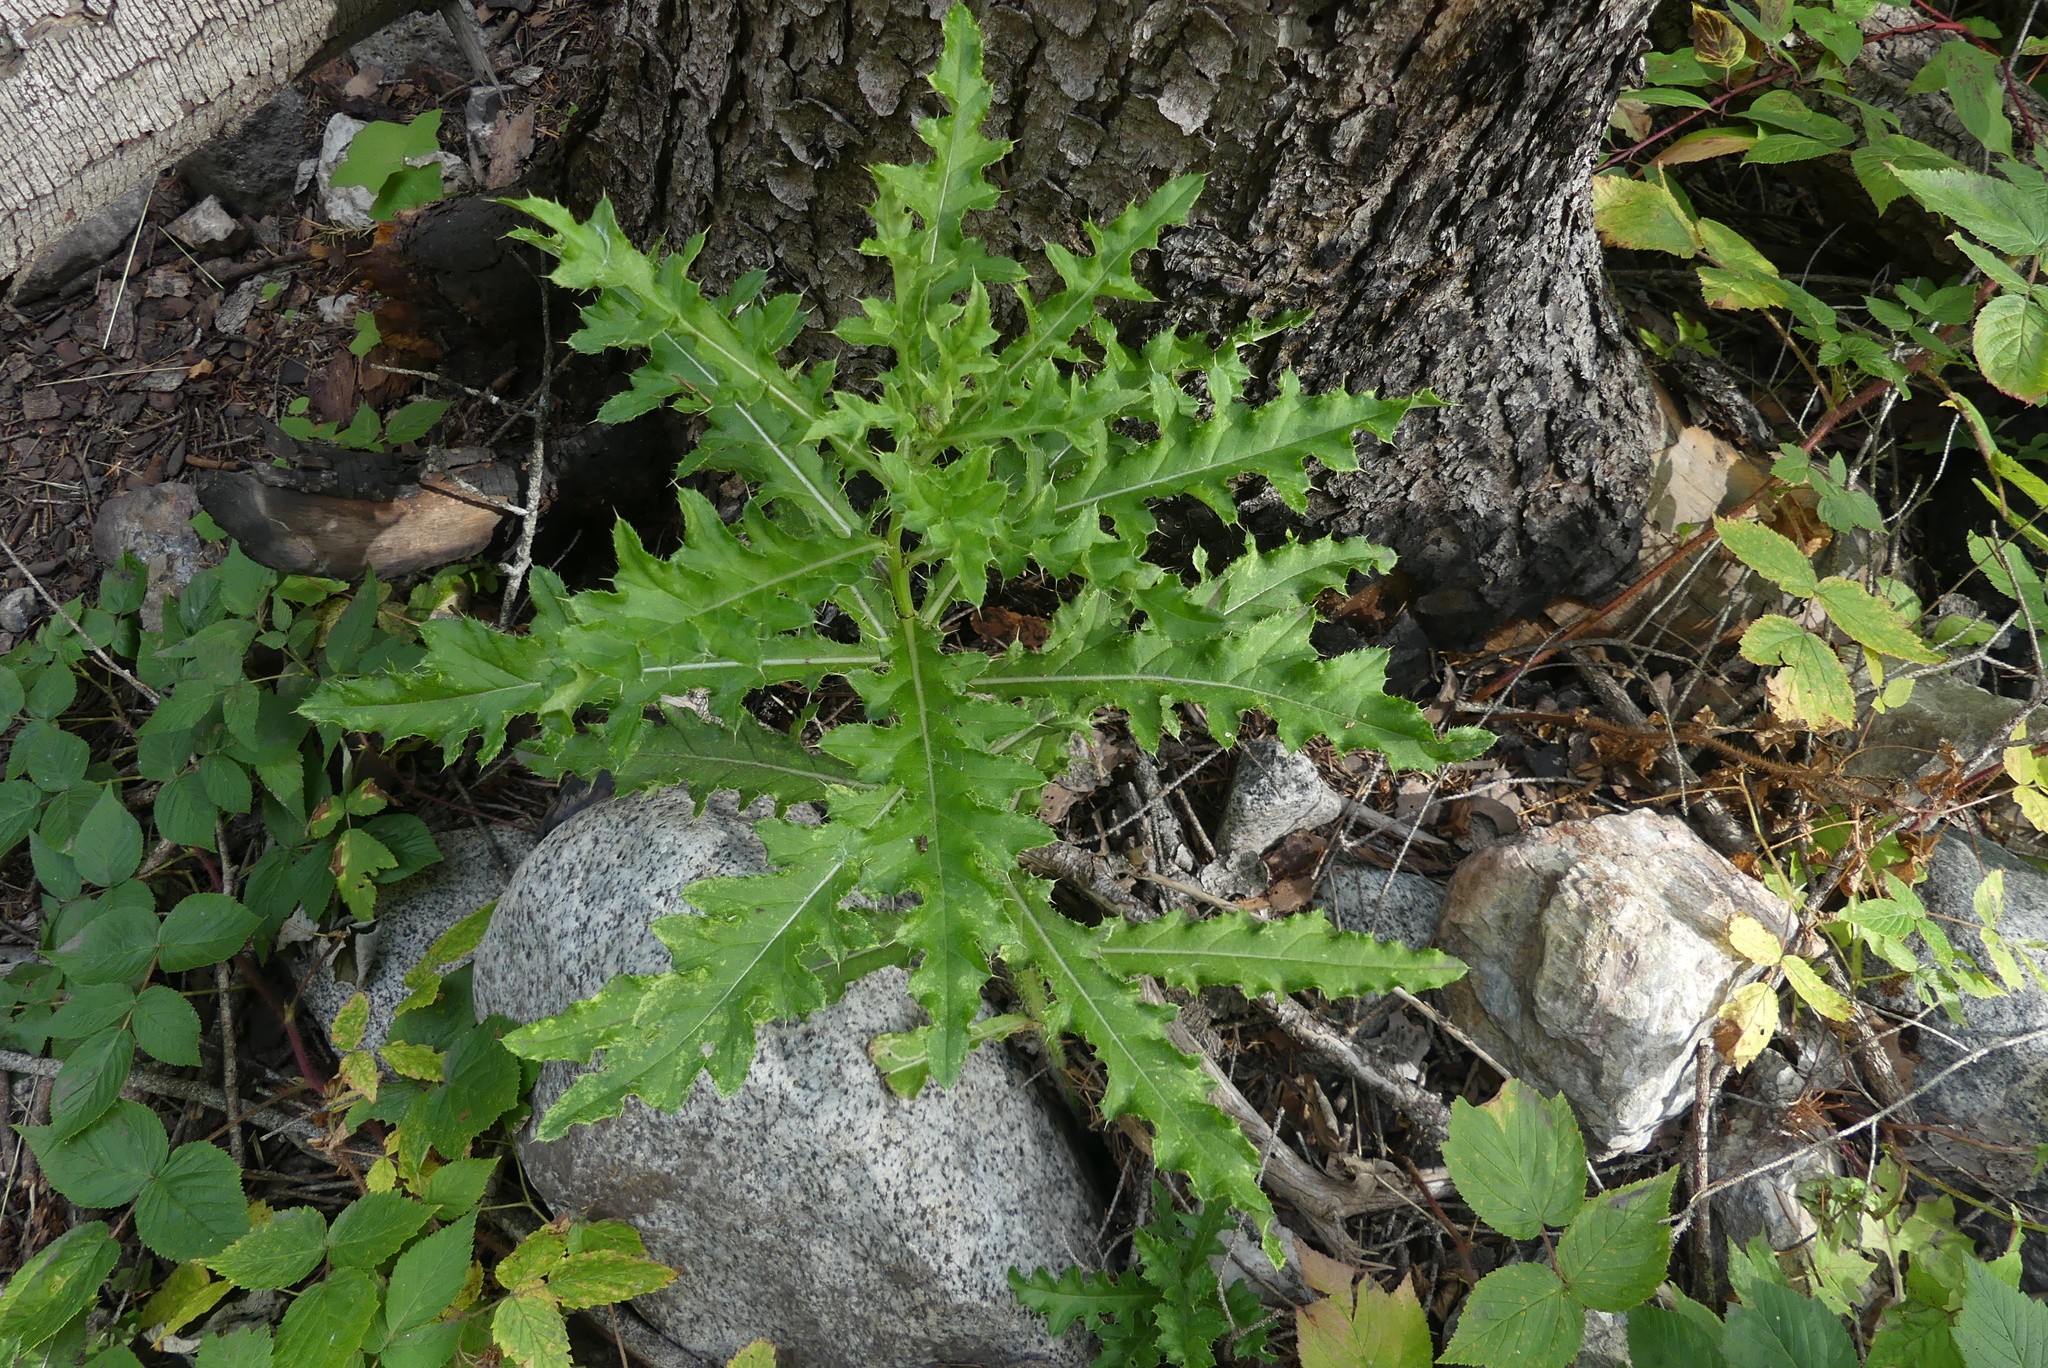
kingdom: Plantae
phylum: Tracheophyta
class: Magnoliopsida
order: Asterales
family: Asteraceae
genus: Cirsium
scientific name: Cirsium arvense
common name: Creeping thistle
